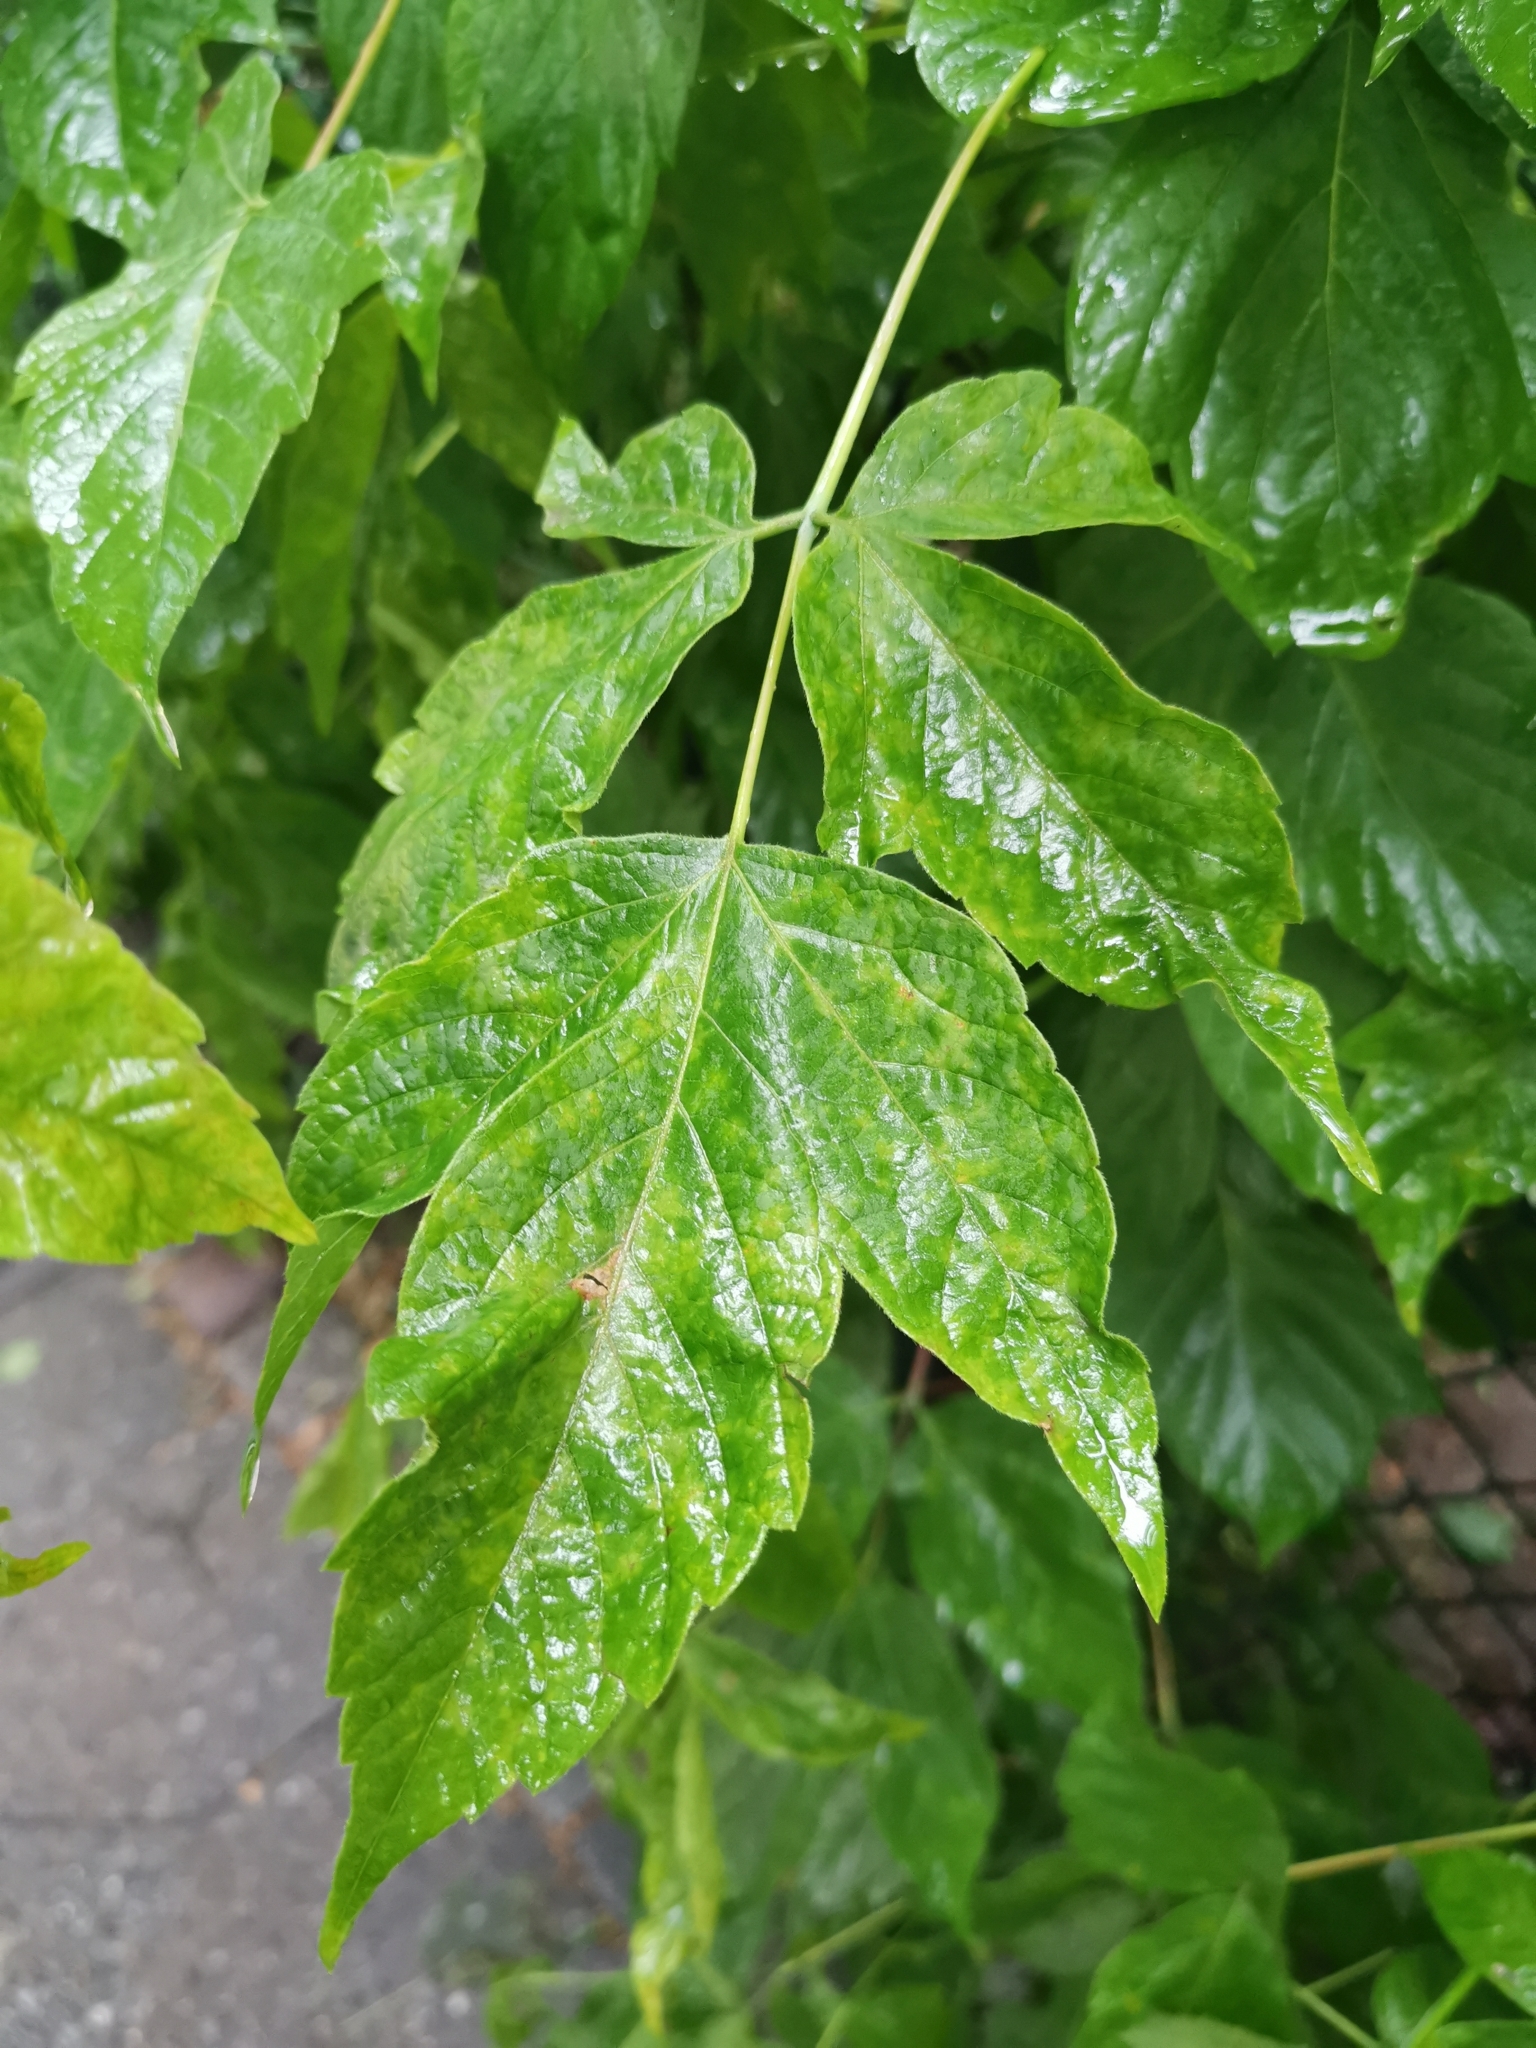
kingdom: Plantae
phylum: Tracheophyta
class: Magnoliopsida
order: Sapindales
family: Sapindaceae
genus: Acer
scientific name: Acer negundo
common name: Ashleaf maple
